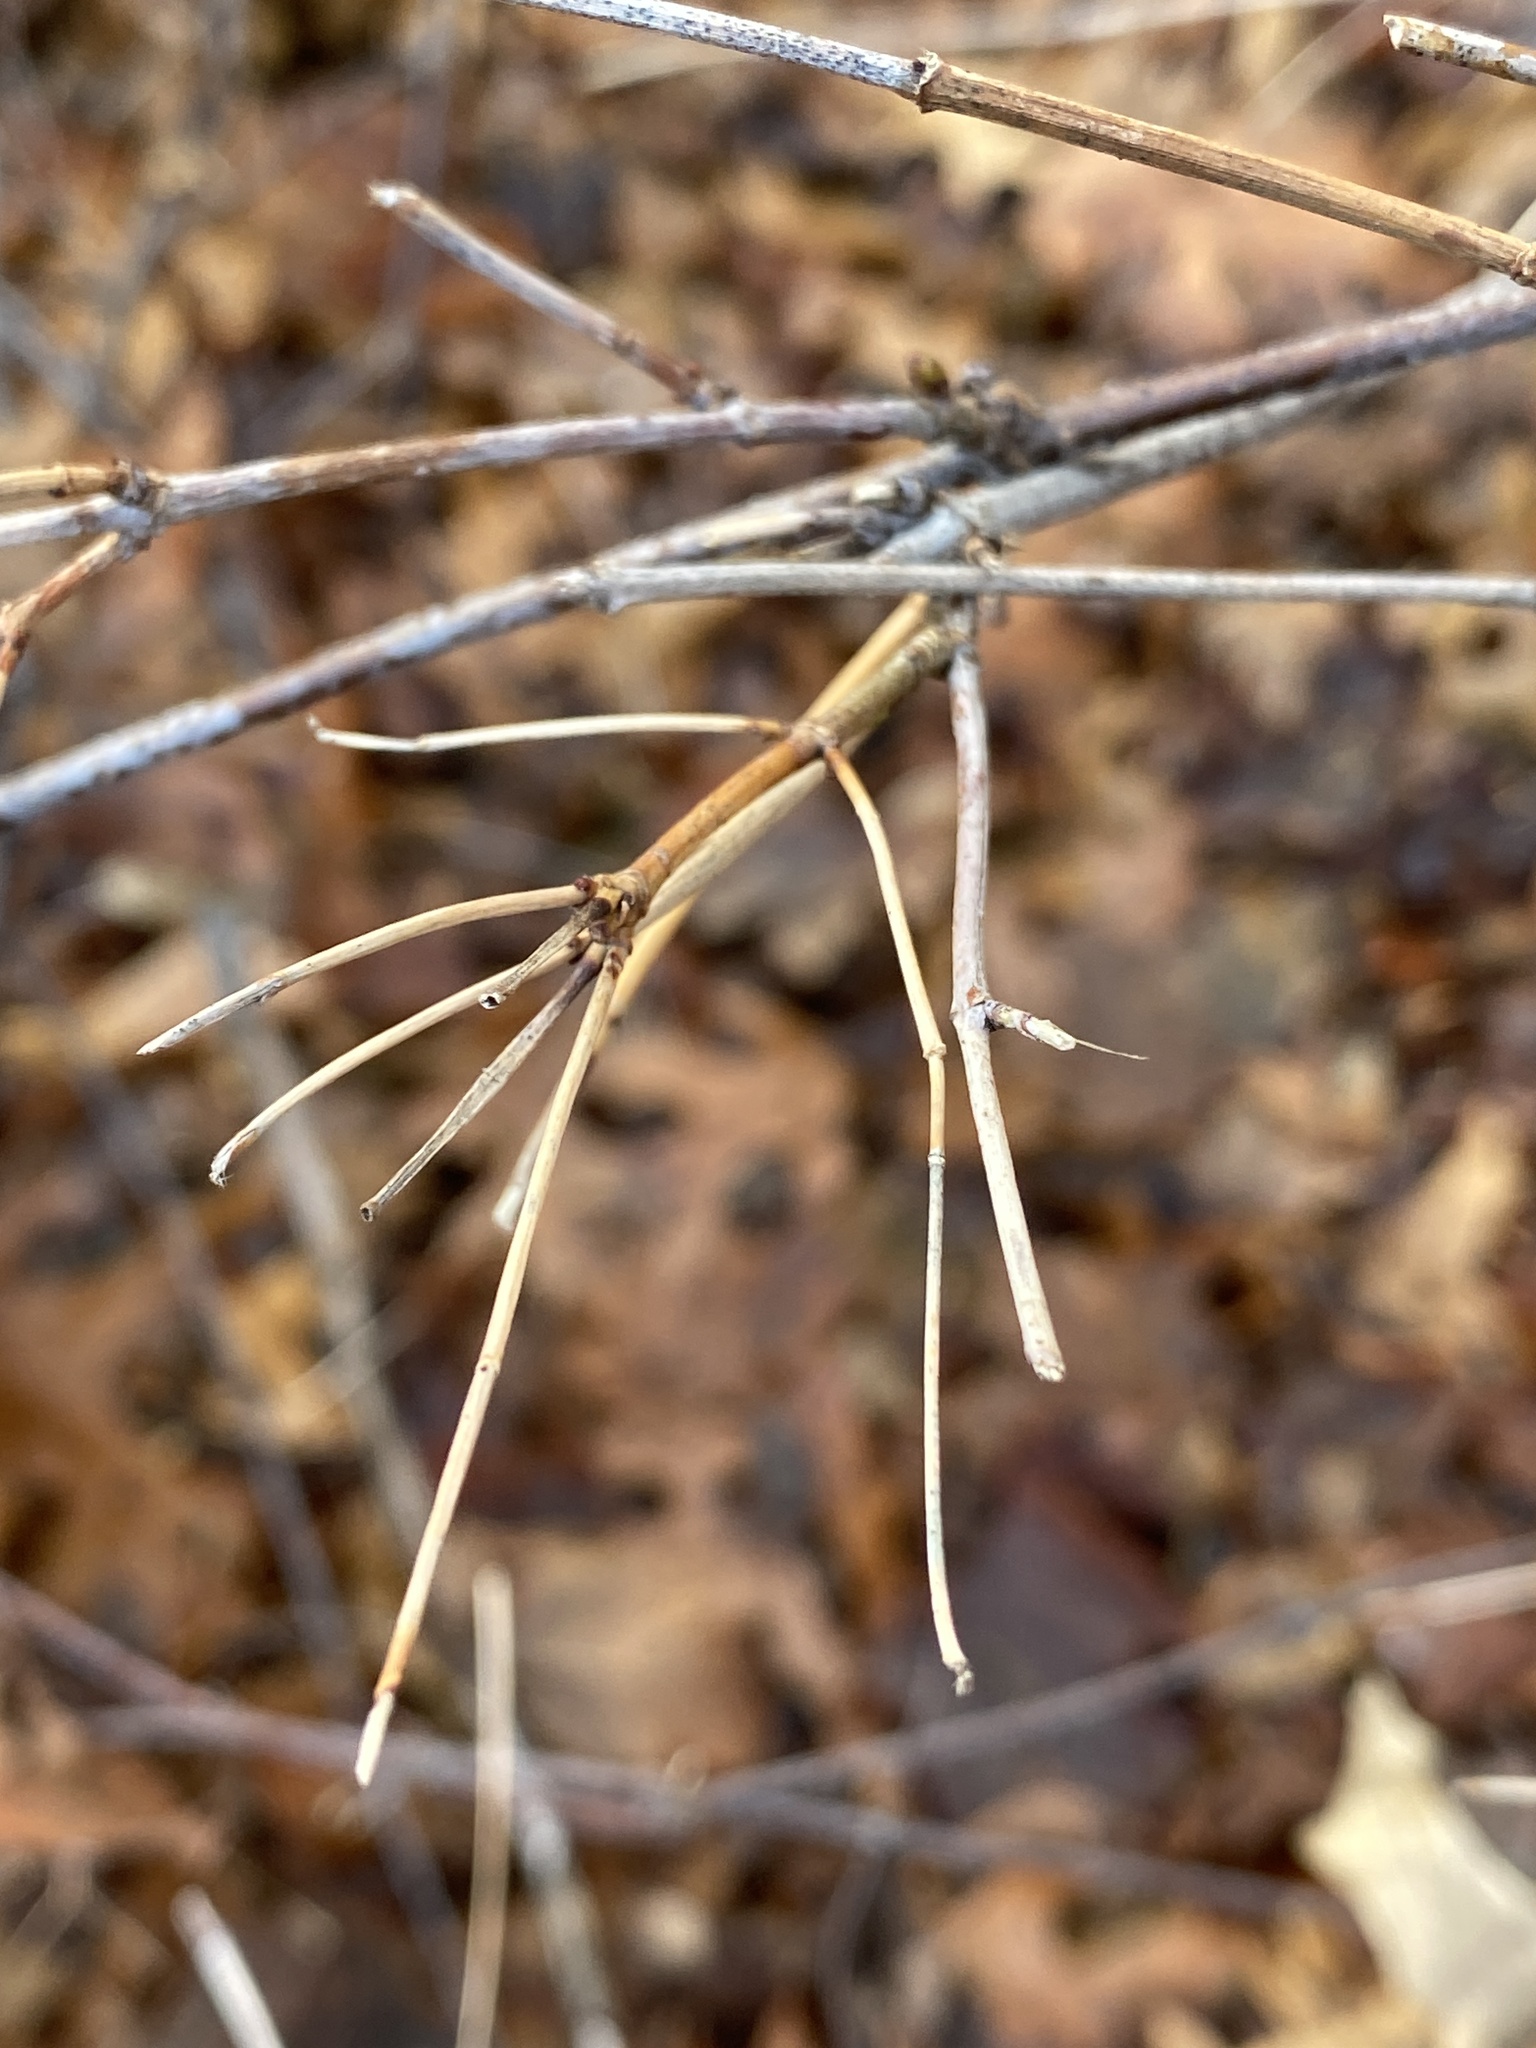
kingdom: Plantae
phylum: Tracheophyta
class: Magnoliopsida
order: Rosales
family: Rosaceae
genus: Rhodotypos
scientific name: Rhodotypos scandens
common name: Jetbead
